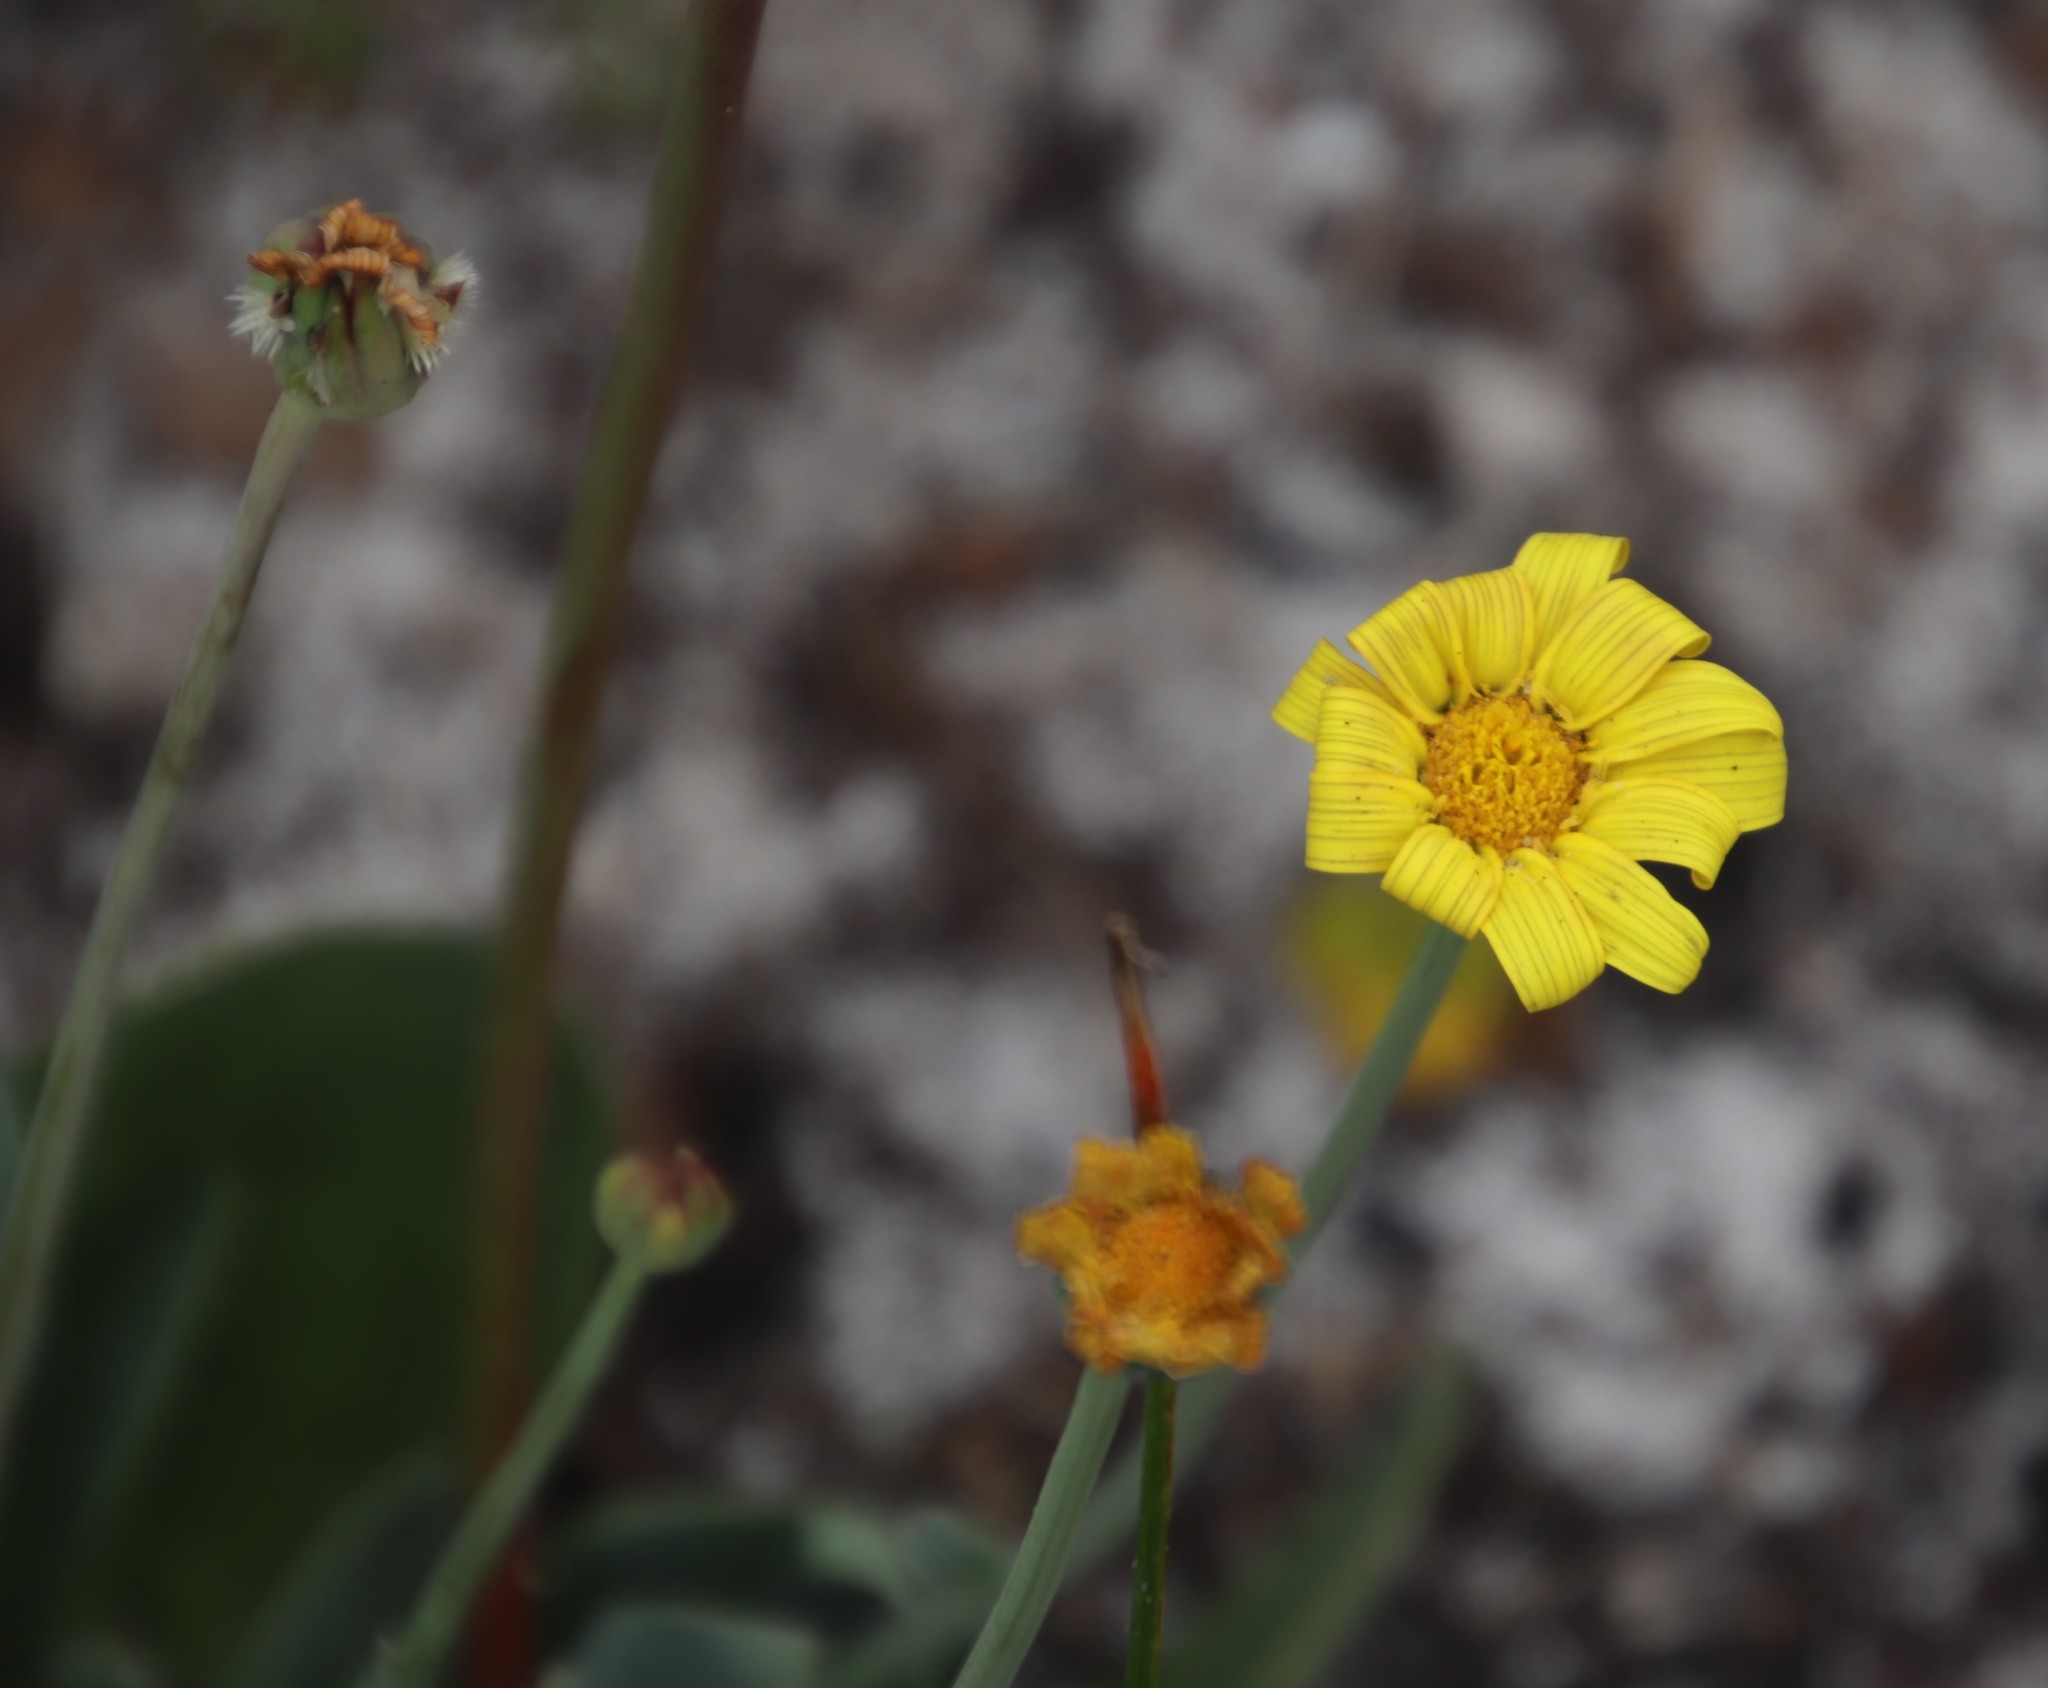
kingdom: Plantae
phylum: Tracheophyta
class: Magnoliopsida
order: Asterales
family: Asteraceae
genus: Othonna
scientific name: Othonna bulbosa
